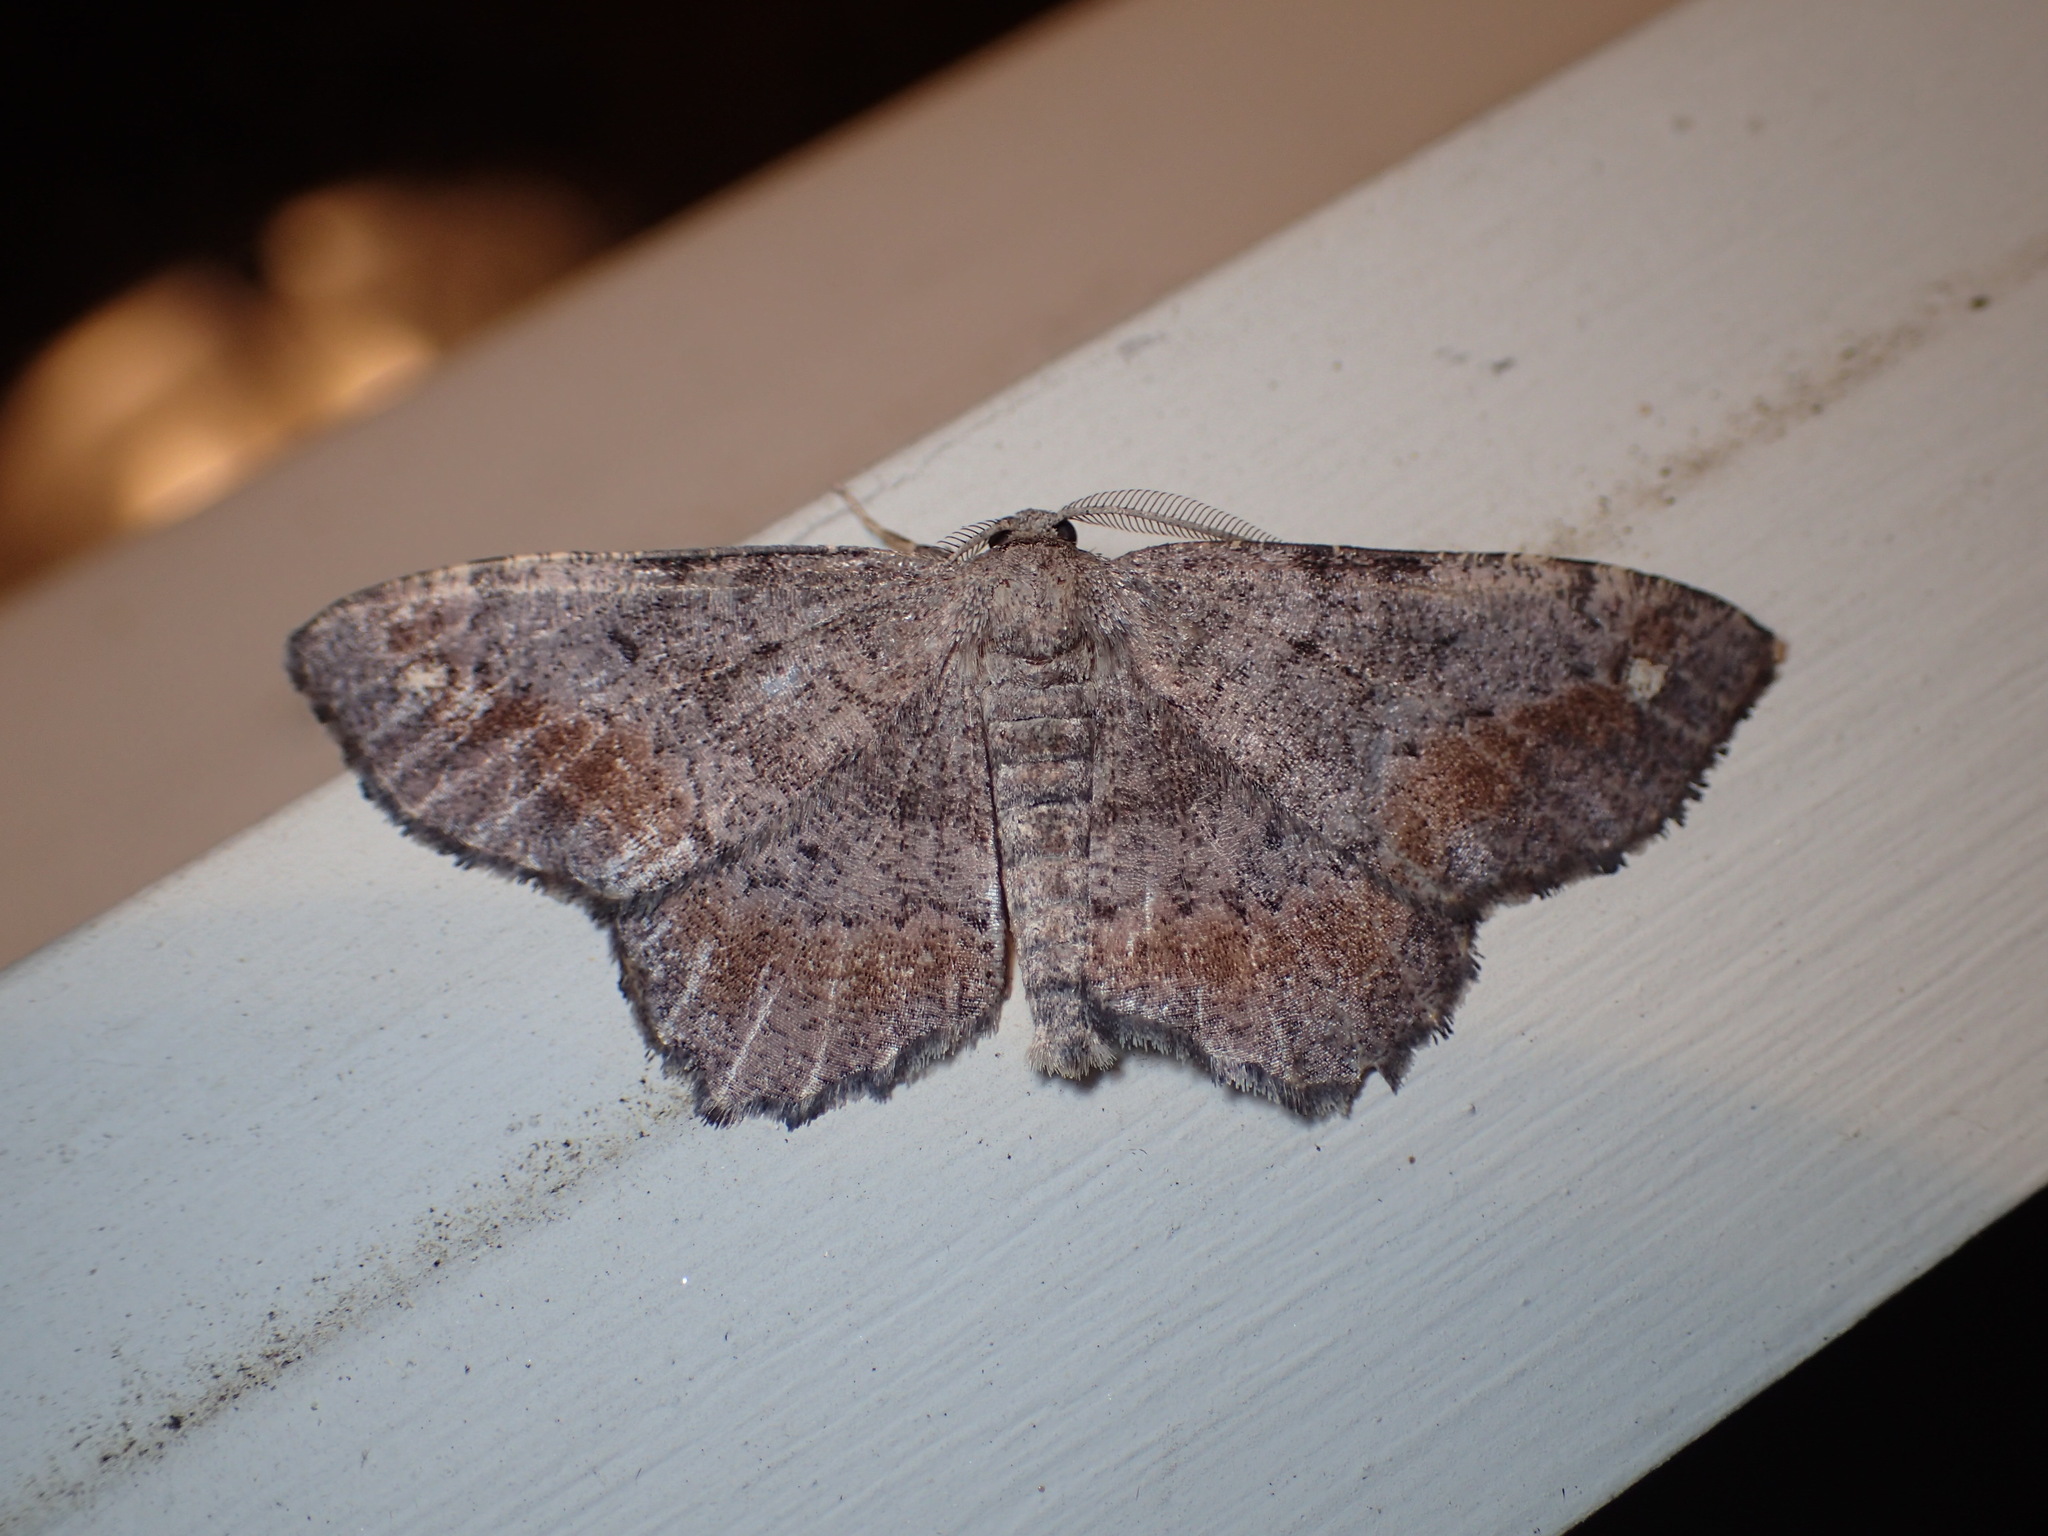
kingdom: Animalia
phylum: Arthropoda
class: Insecta
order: Lepidoptera
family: Geometridae
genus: Hypagyrtis
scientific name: Hypagyrtis unipunctata
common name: One-spotted variant
